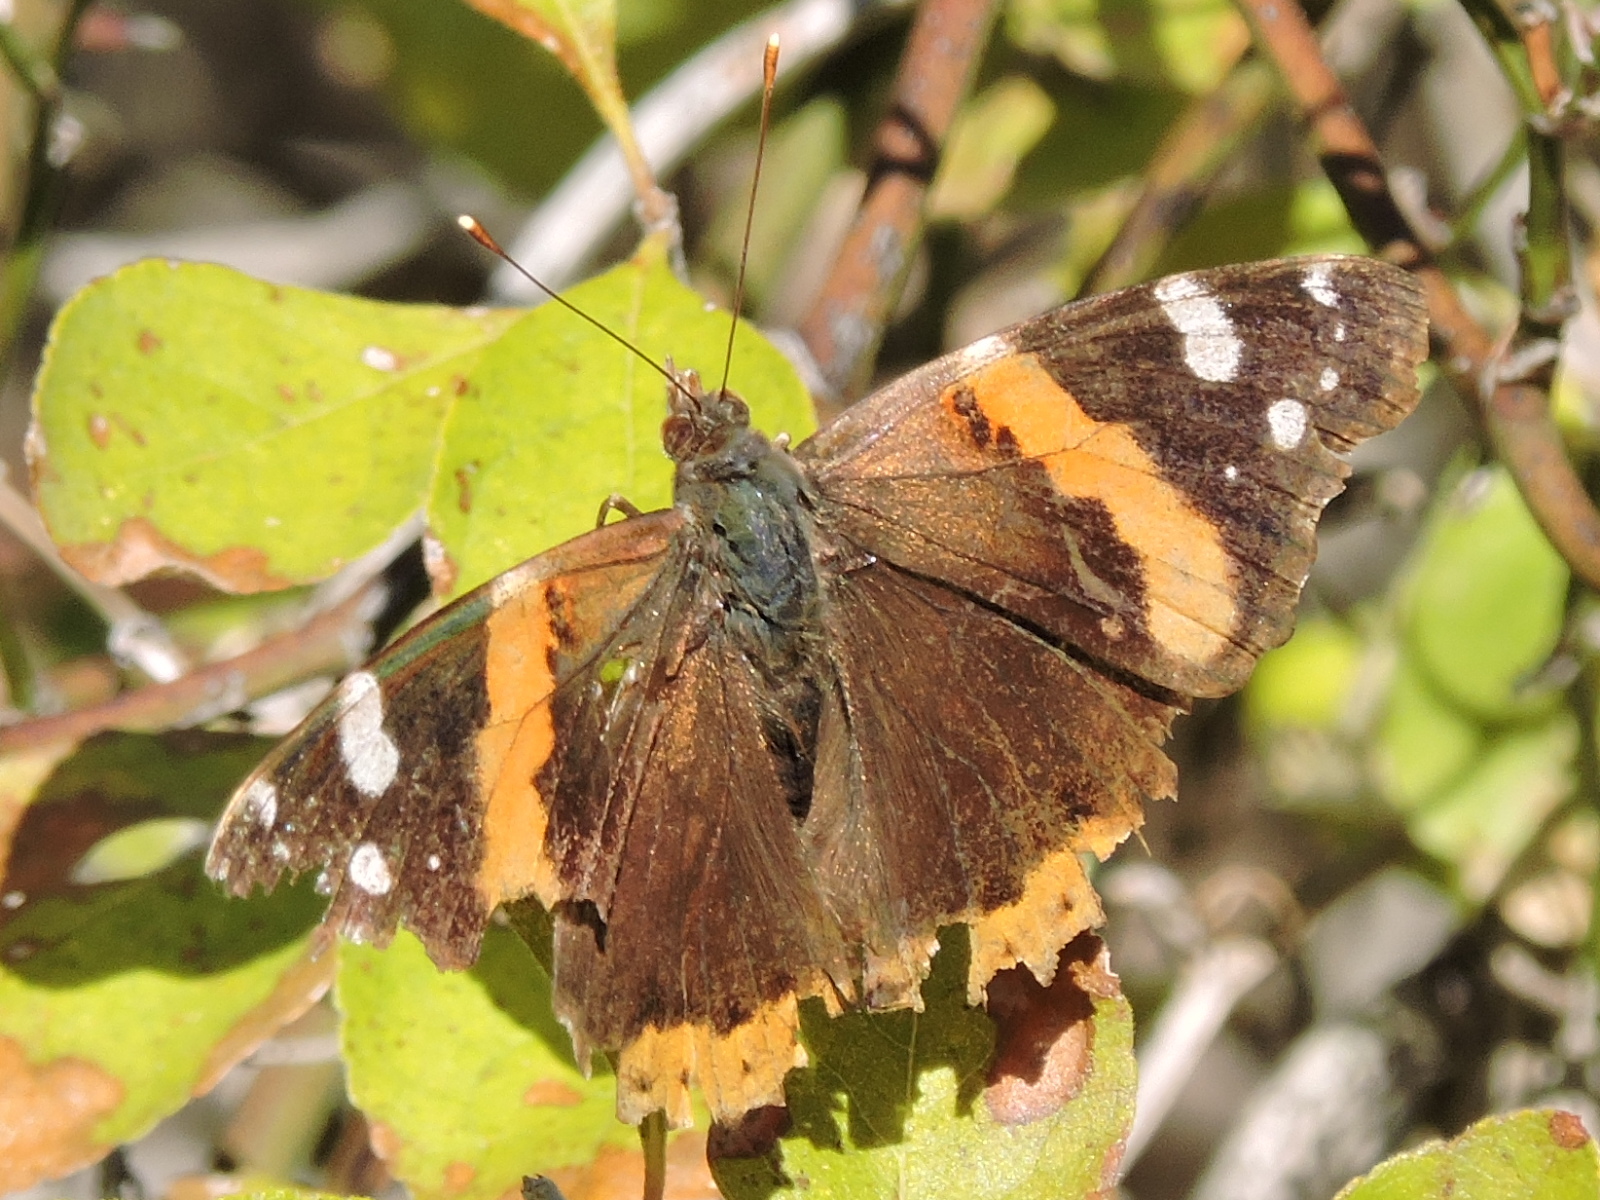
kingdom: Animalia
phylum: Arthropoda
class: Insecta
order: Lepidoptera
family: Nymphalidae
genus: Vanessa
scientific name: Vanessa atalanta
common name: Red admiral
